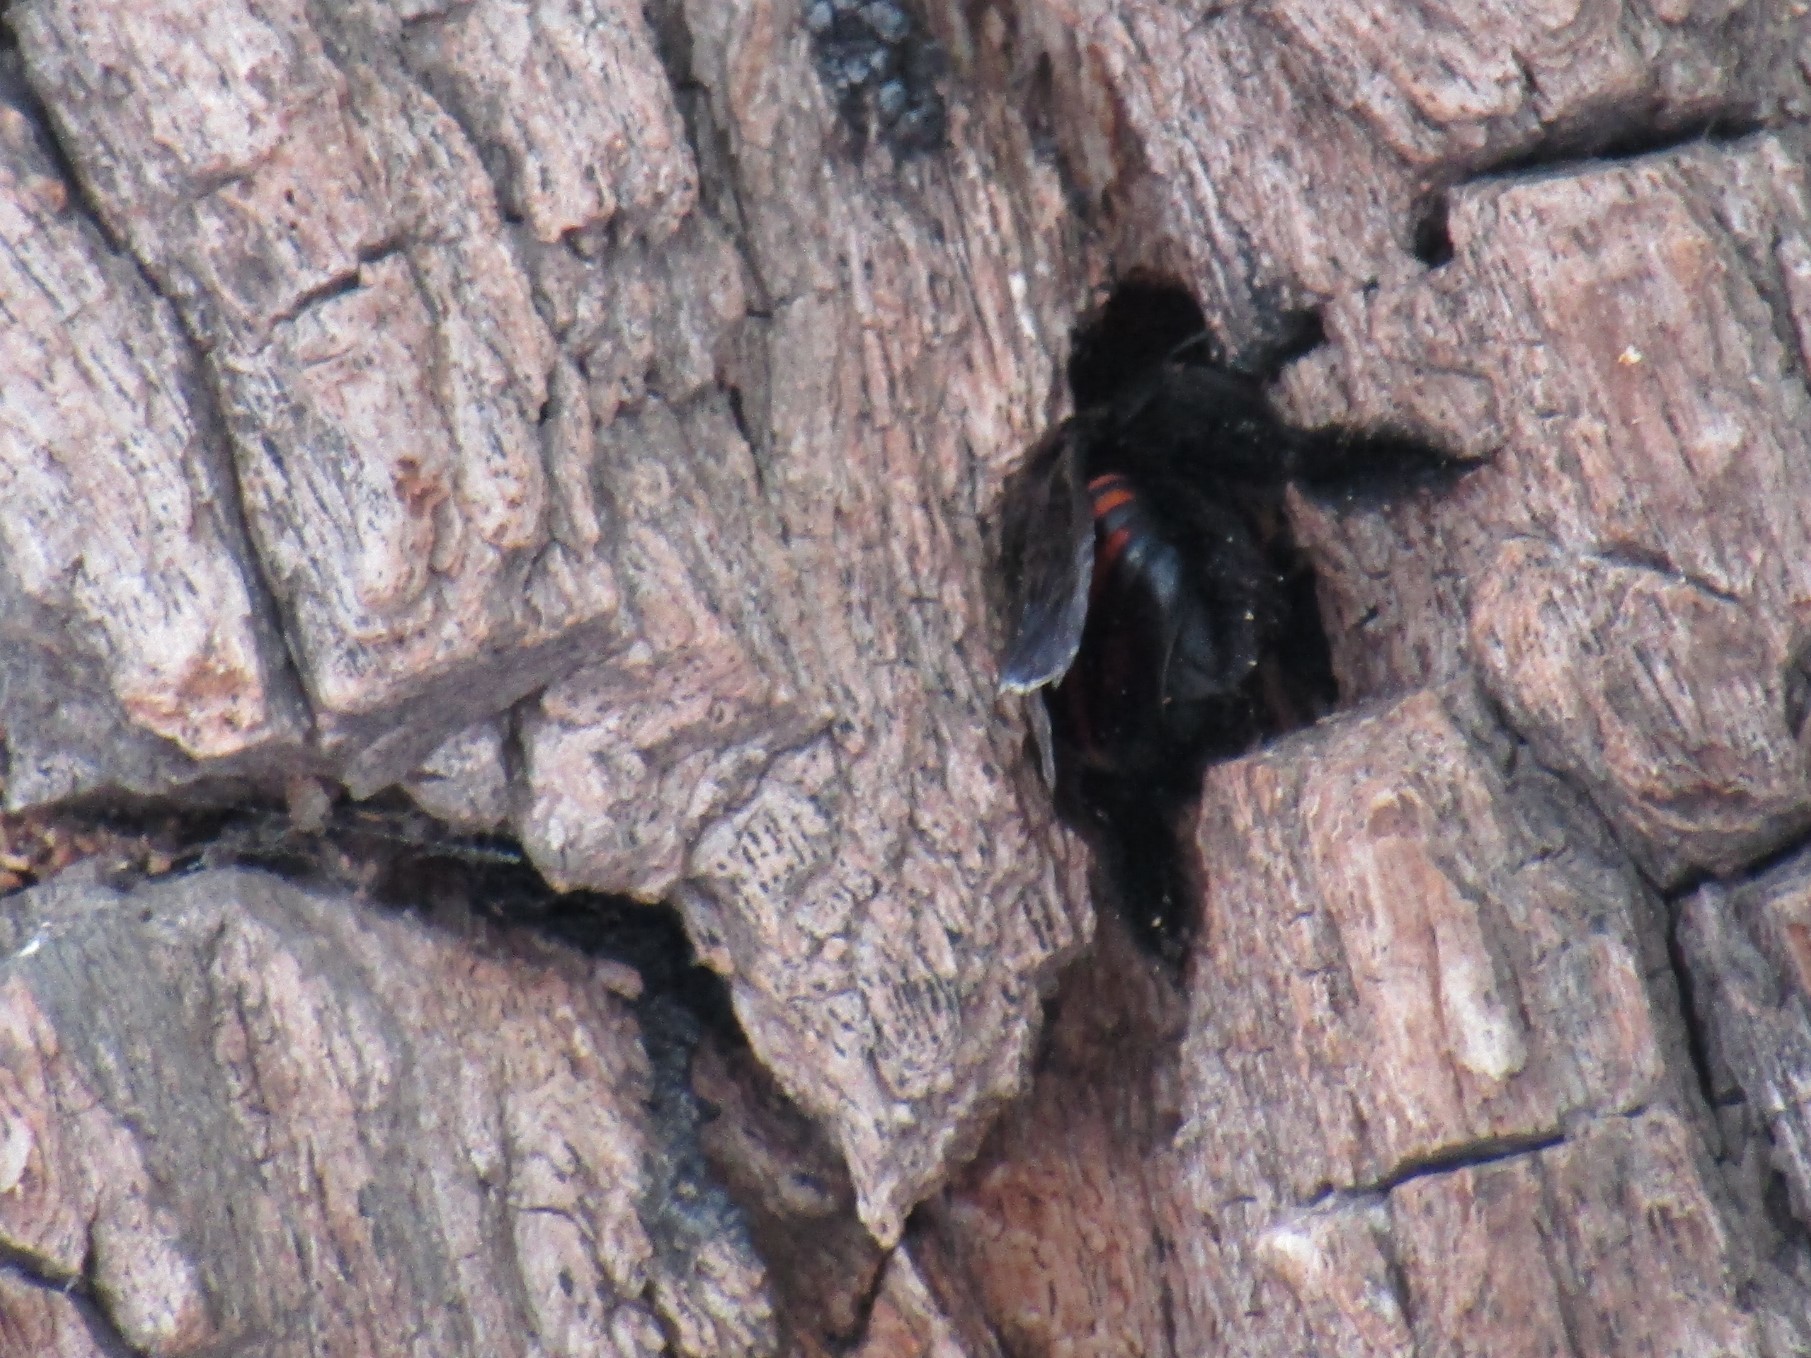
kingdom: Animalia
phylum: Arthropoda
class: Insecta
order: Hymenoptera
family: Apidae
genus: Xylocopa
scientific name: Xylocopa frontalis
